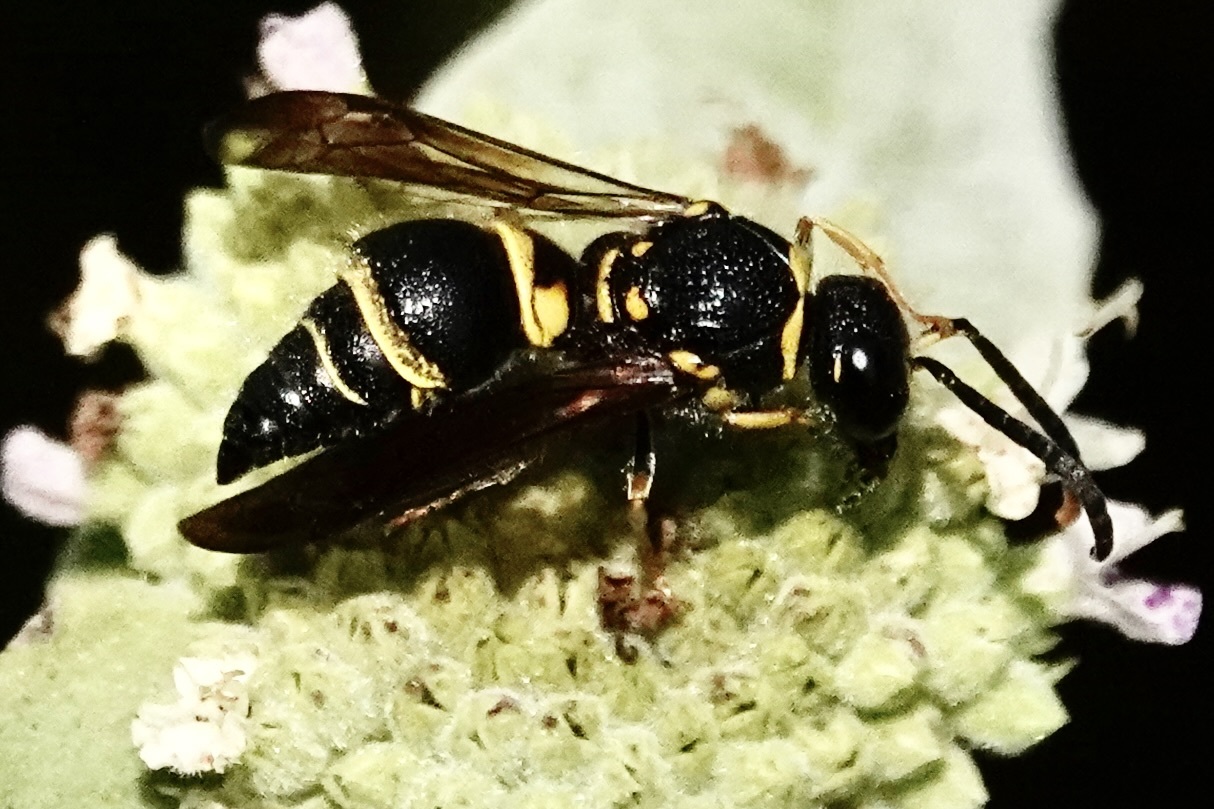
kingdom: Animalia
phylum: Arthropoda
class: Insecta
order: Hymenoptera
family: Vespidae
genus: Ancistrocerus
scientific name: Ancistrocerus campestris
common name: Smiling mason wasp
